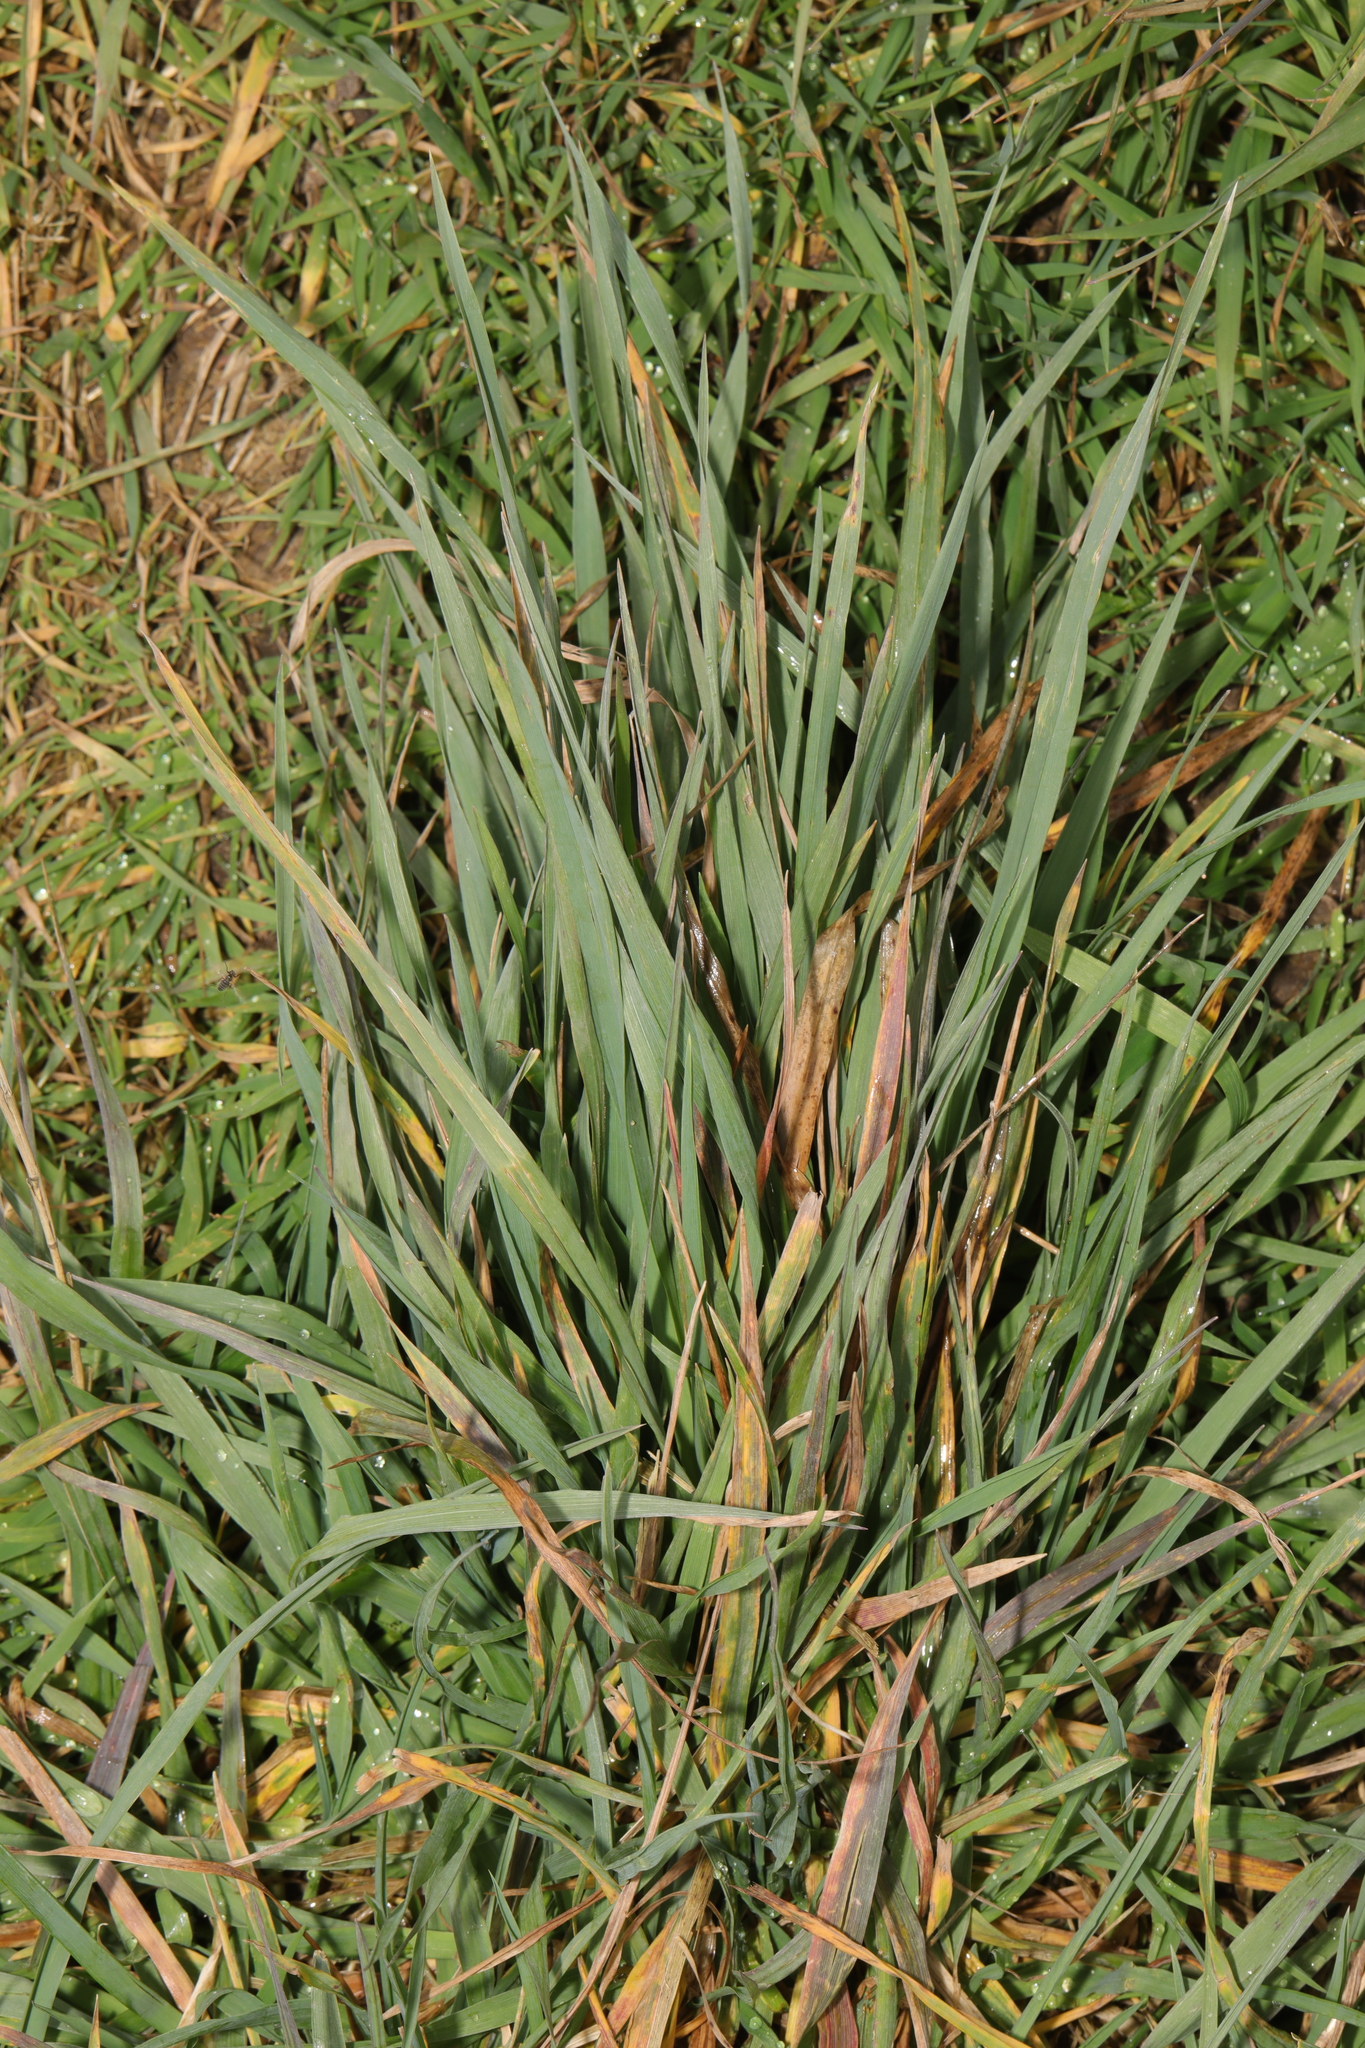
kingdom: Plantae
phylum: Tracheophyta
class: Liliopsida
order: Poales
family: Poaceae
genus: Holcus
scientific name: Holcus lanatus
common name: Yorkshire-fog
